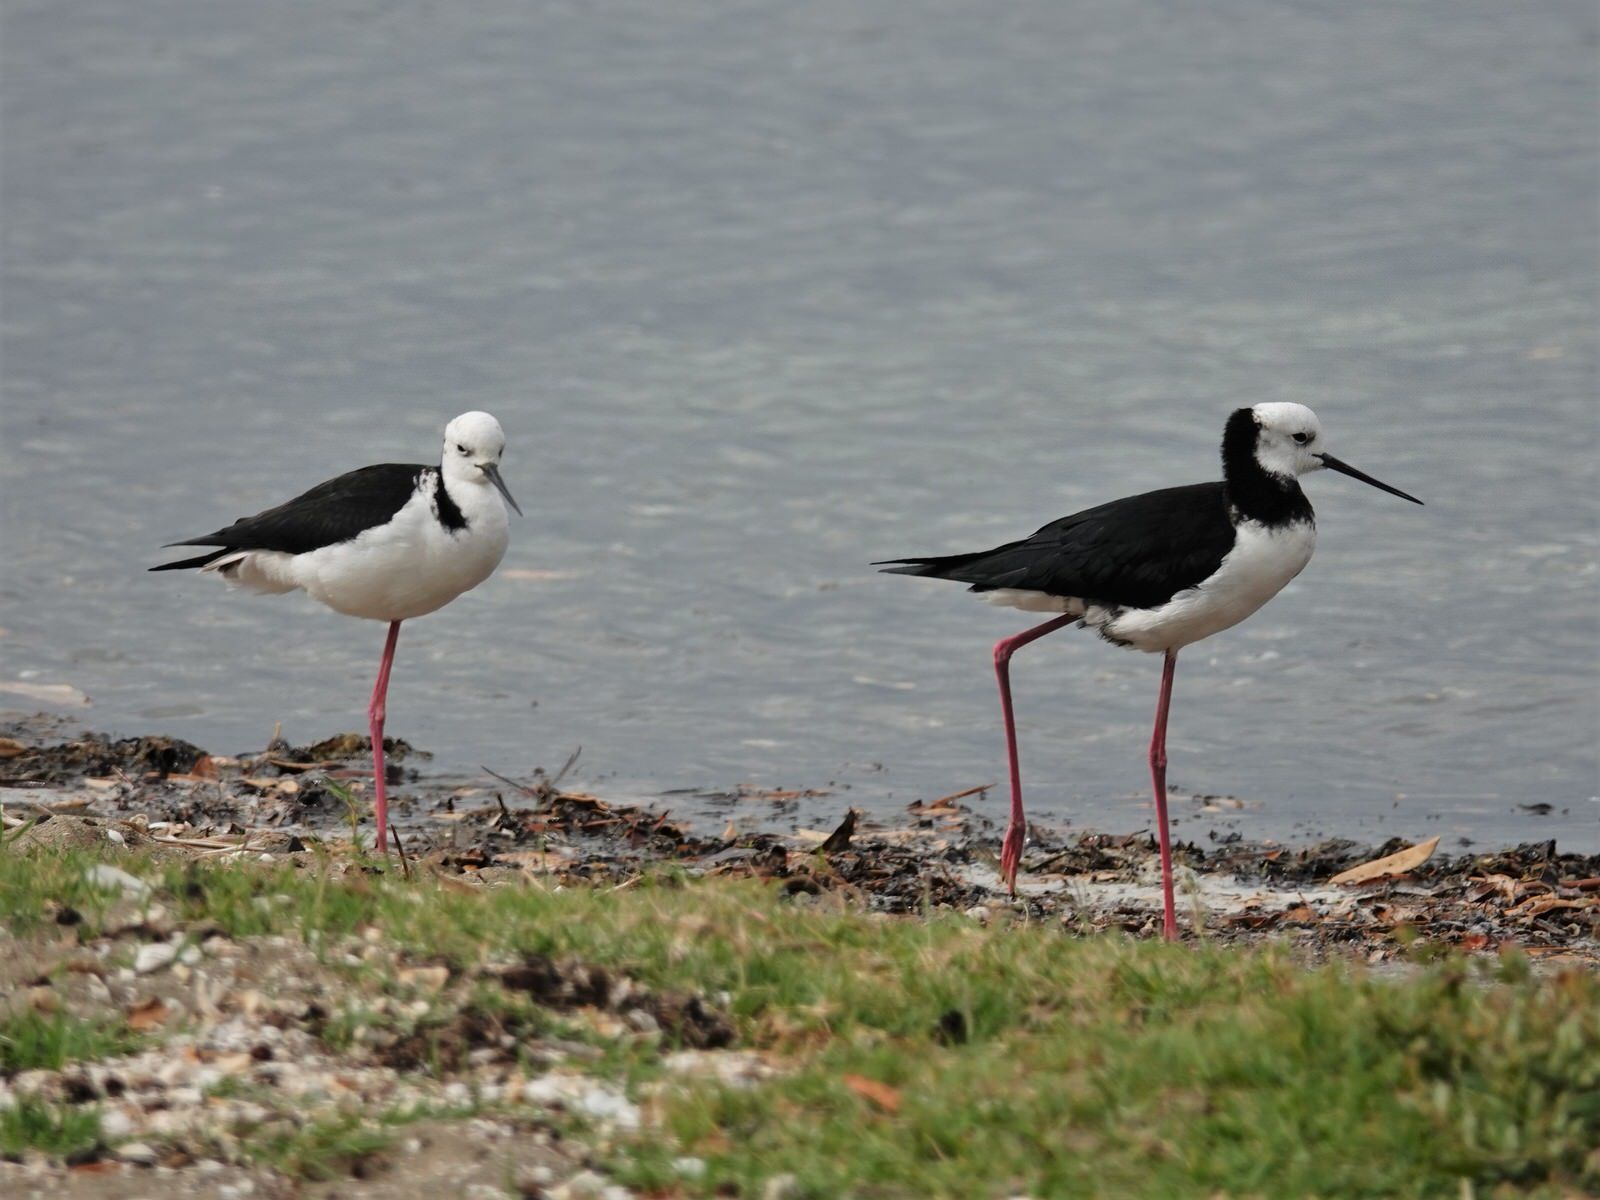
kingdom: Animalia
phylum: Chordata
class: Aves
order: Charadriiformes
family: Recurvirostridae
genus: Himantopus
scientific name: Himantopus leucocephalus
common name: White-headed stilt
